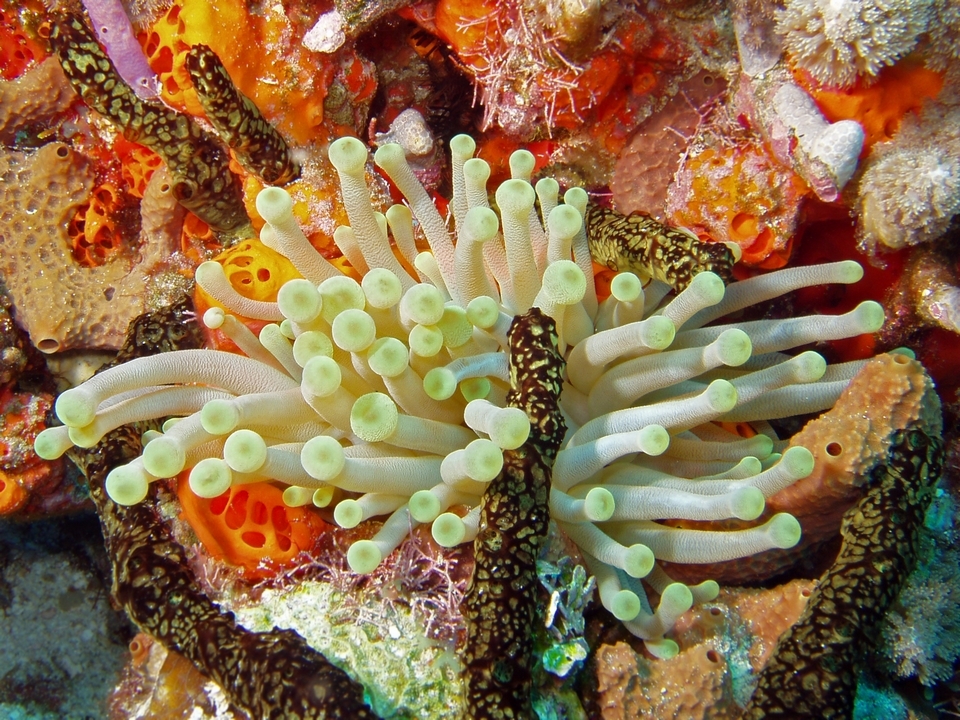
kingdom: Animalia
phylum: Cnidaria
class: Anthozoa
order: Actiniaria
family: Actiniidae
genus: Condylactis
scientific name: Condylactis gigantea
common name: Giant caribbean anemone
